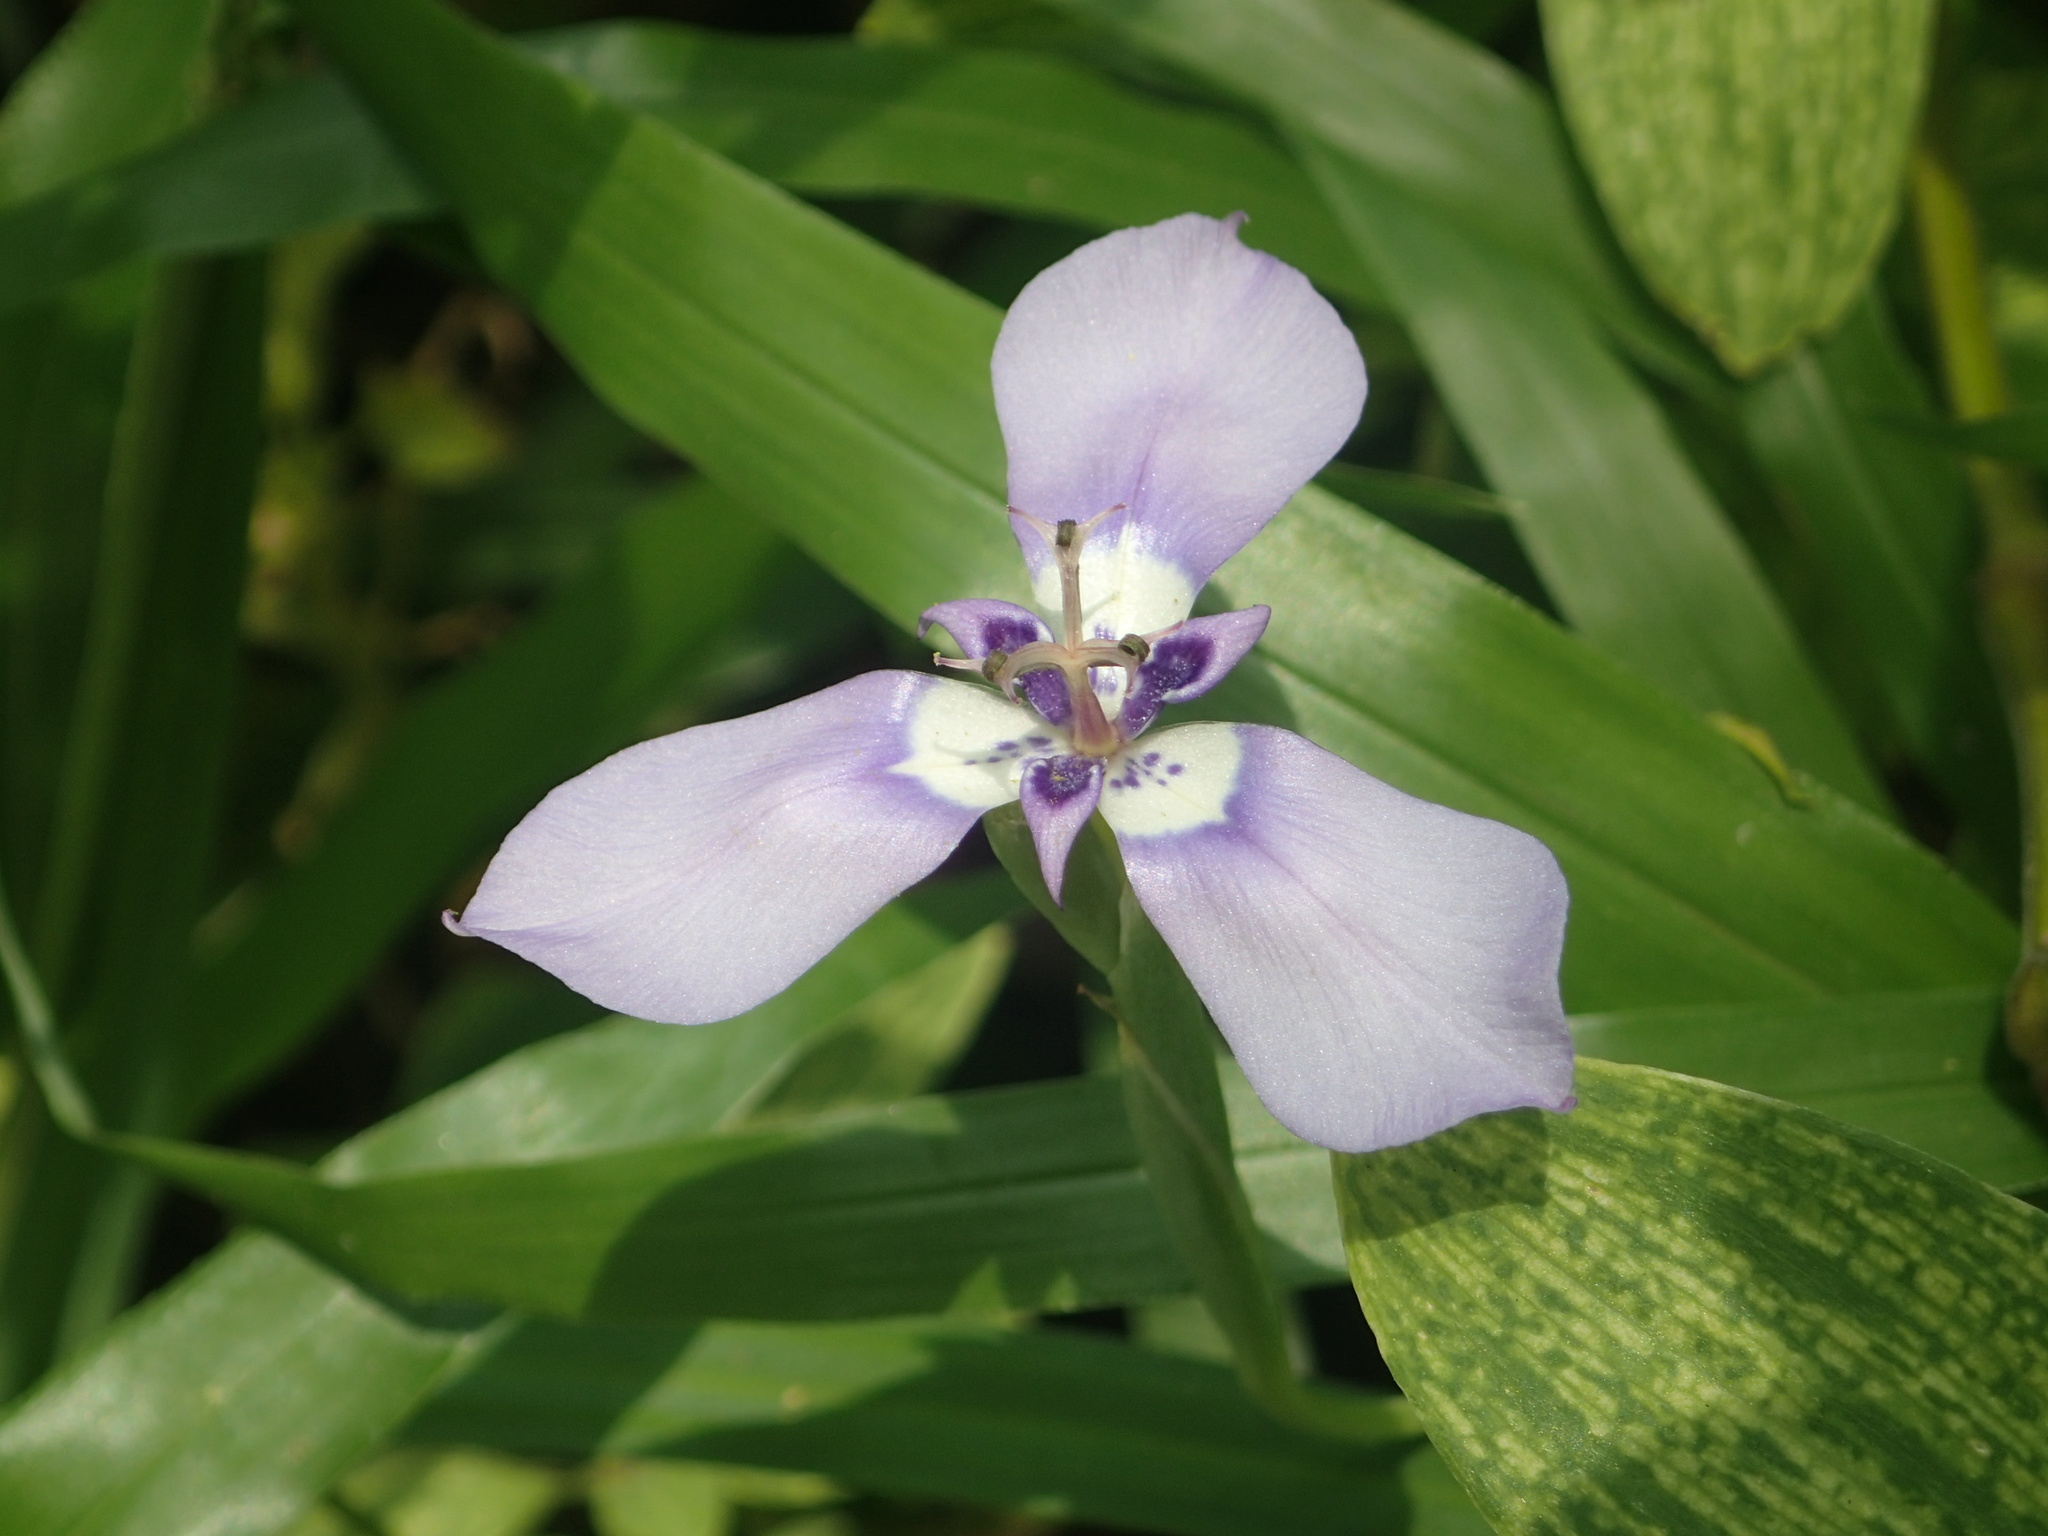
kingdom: Plantae
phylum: Tracheophyta
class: Liliopsida
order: Asparagales
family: Iridaceae
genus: Herbertia
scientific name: Herbertia lahue
